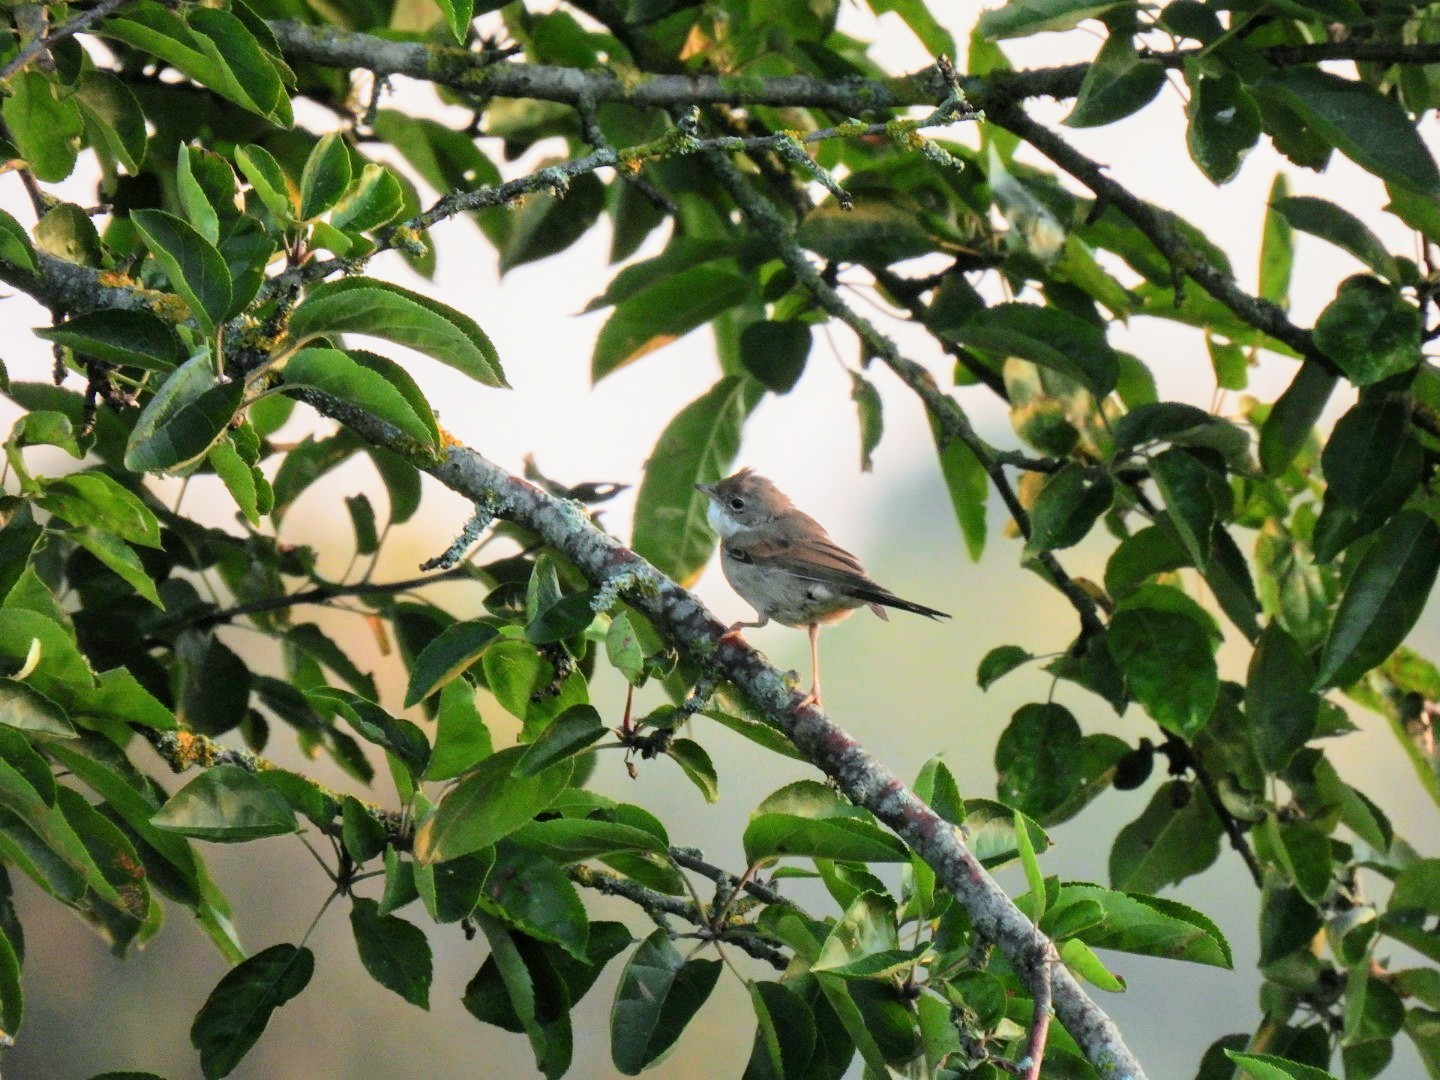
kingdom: Animalia
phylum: Chordata
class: Aves
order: Passeriformes
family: Sylviidae
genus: Sylvia
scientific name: Sylvia communis
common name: Common whitethroat
